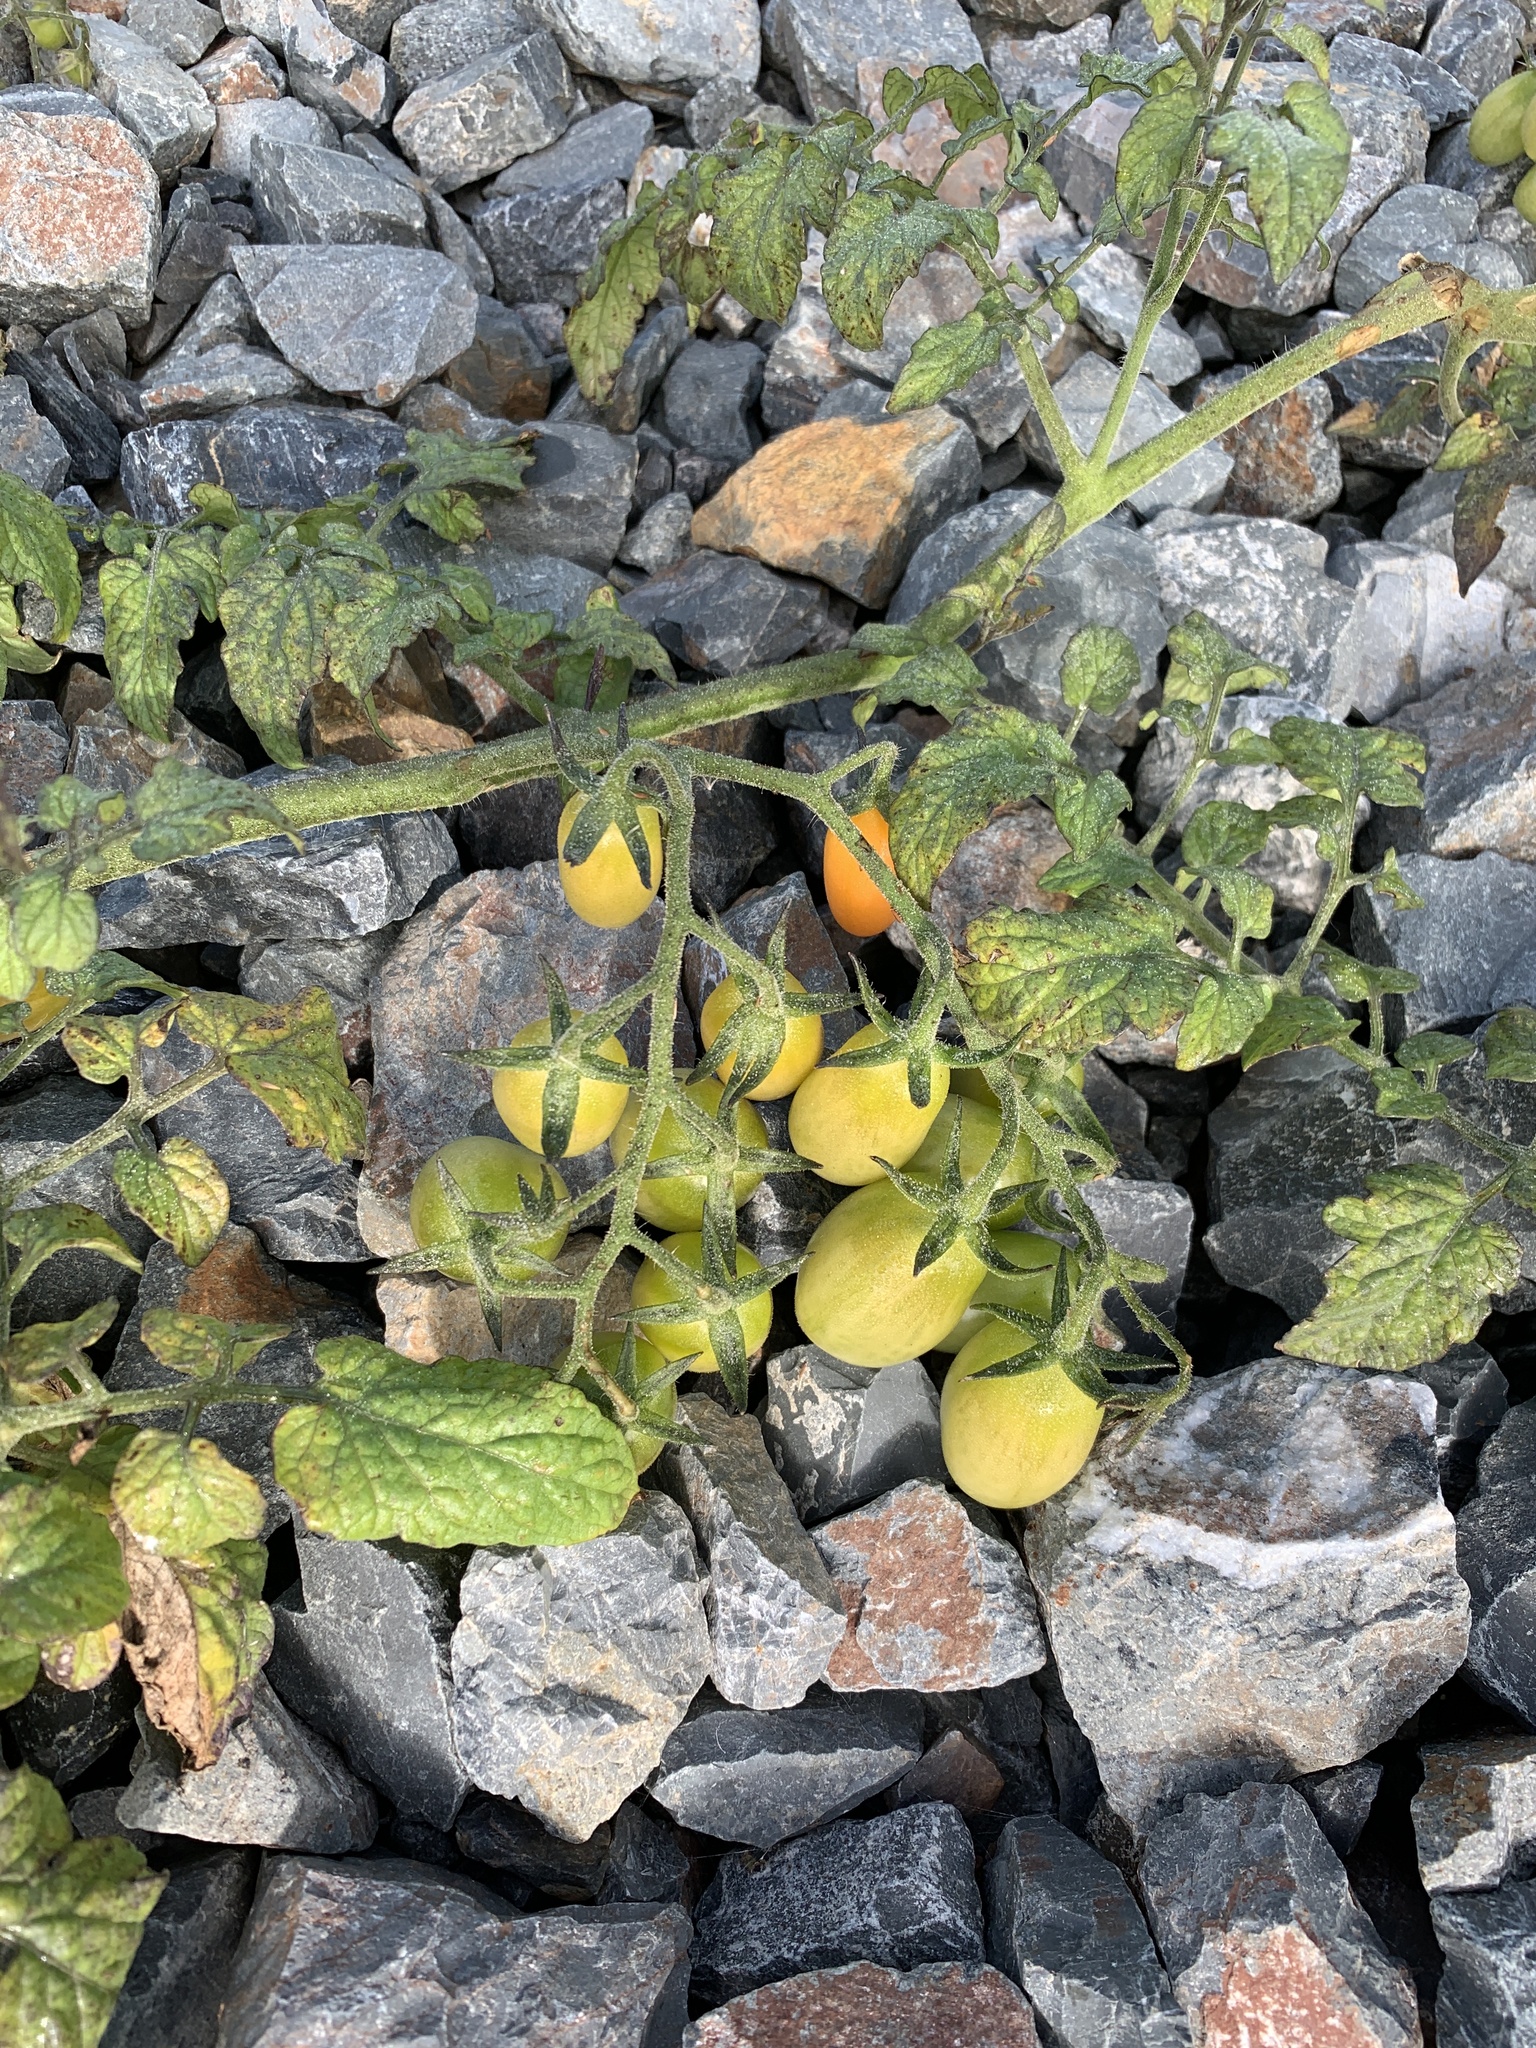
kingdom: Plantae
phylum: Tracheophyta
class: Magnoliopsida
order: Solanales
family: Solanaceae
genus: Solanum
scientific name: Solanum lycopersicum
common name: Garden tomato
